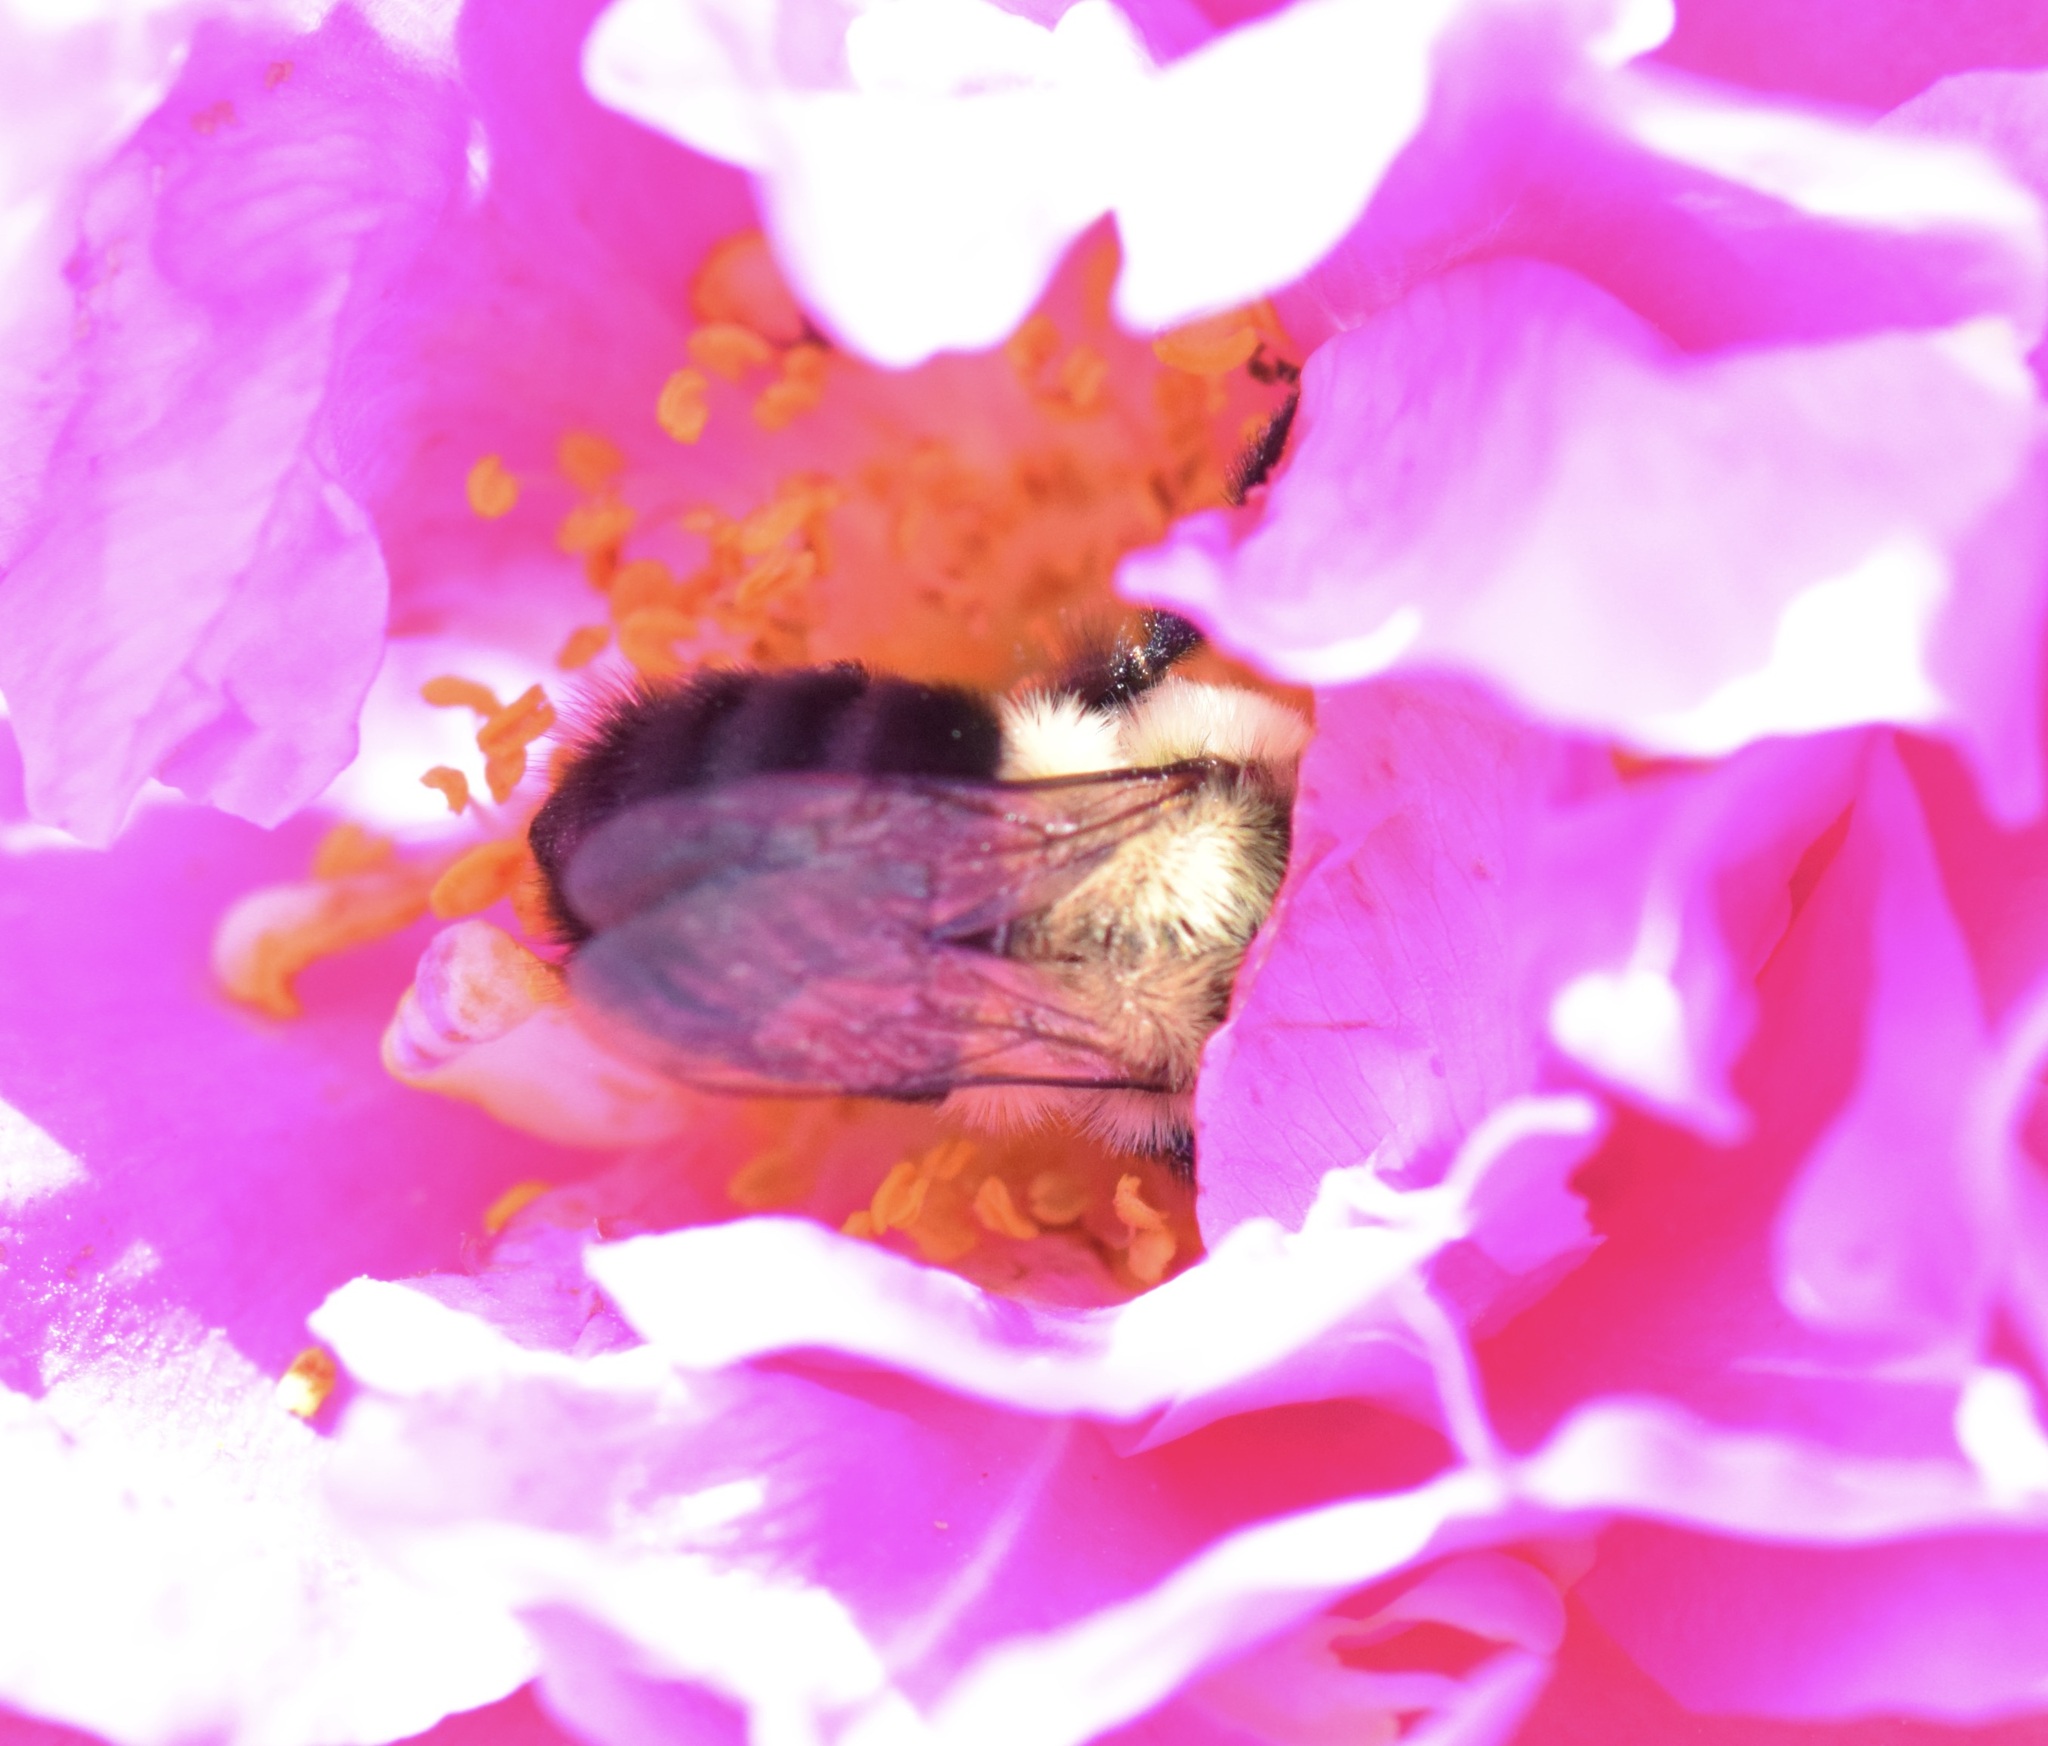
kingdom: Animalia
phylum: Arthropoda
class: Insecta
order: Hymenoptera
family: Apidae
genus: Bombus
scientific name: Bombus impatiens
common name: Common eastern bumble bee
